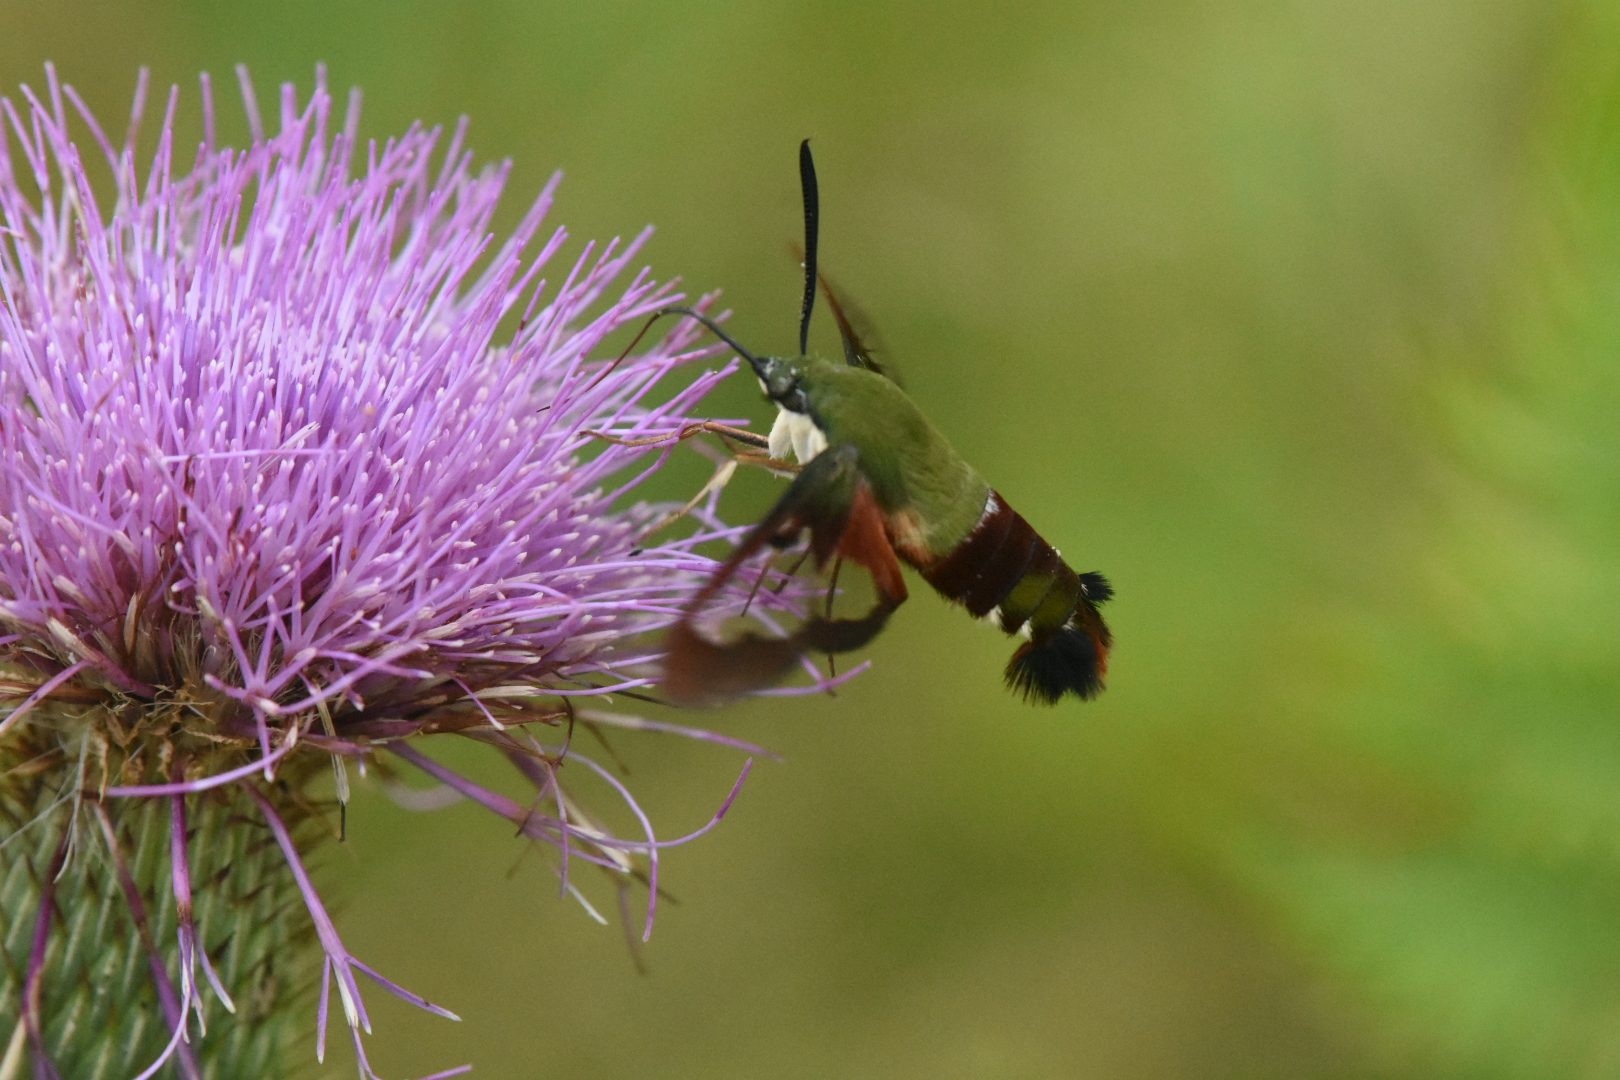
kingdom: Animalia
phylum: Arthropoda
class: Insecta
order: Lepidoptera
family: Sphingidae
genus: Hemaris
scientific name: Hemaris thysbe
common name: Common clear-wing
